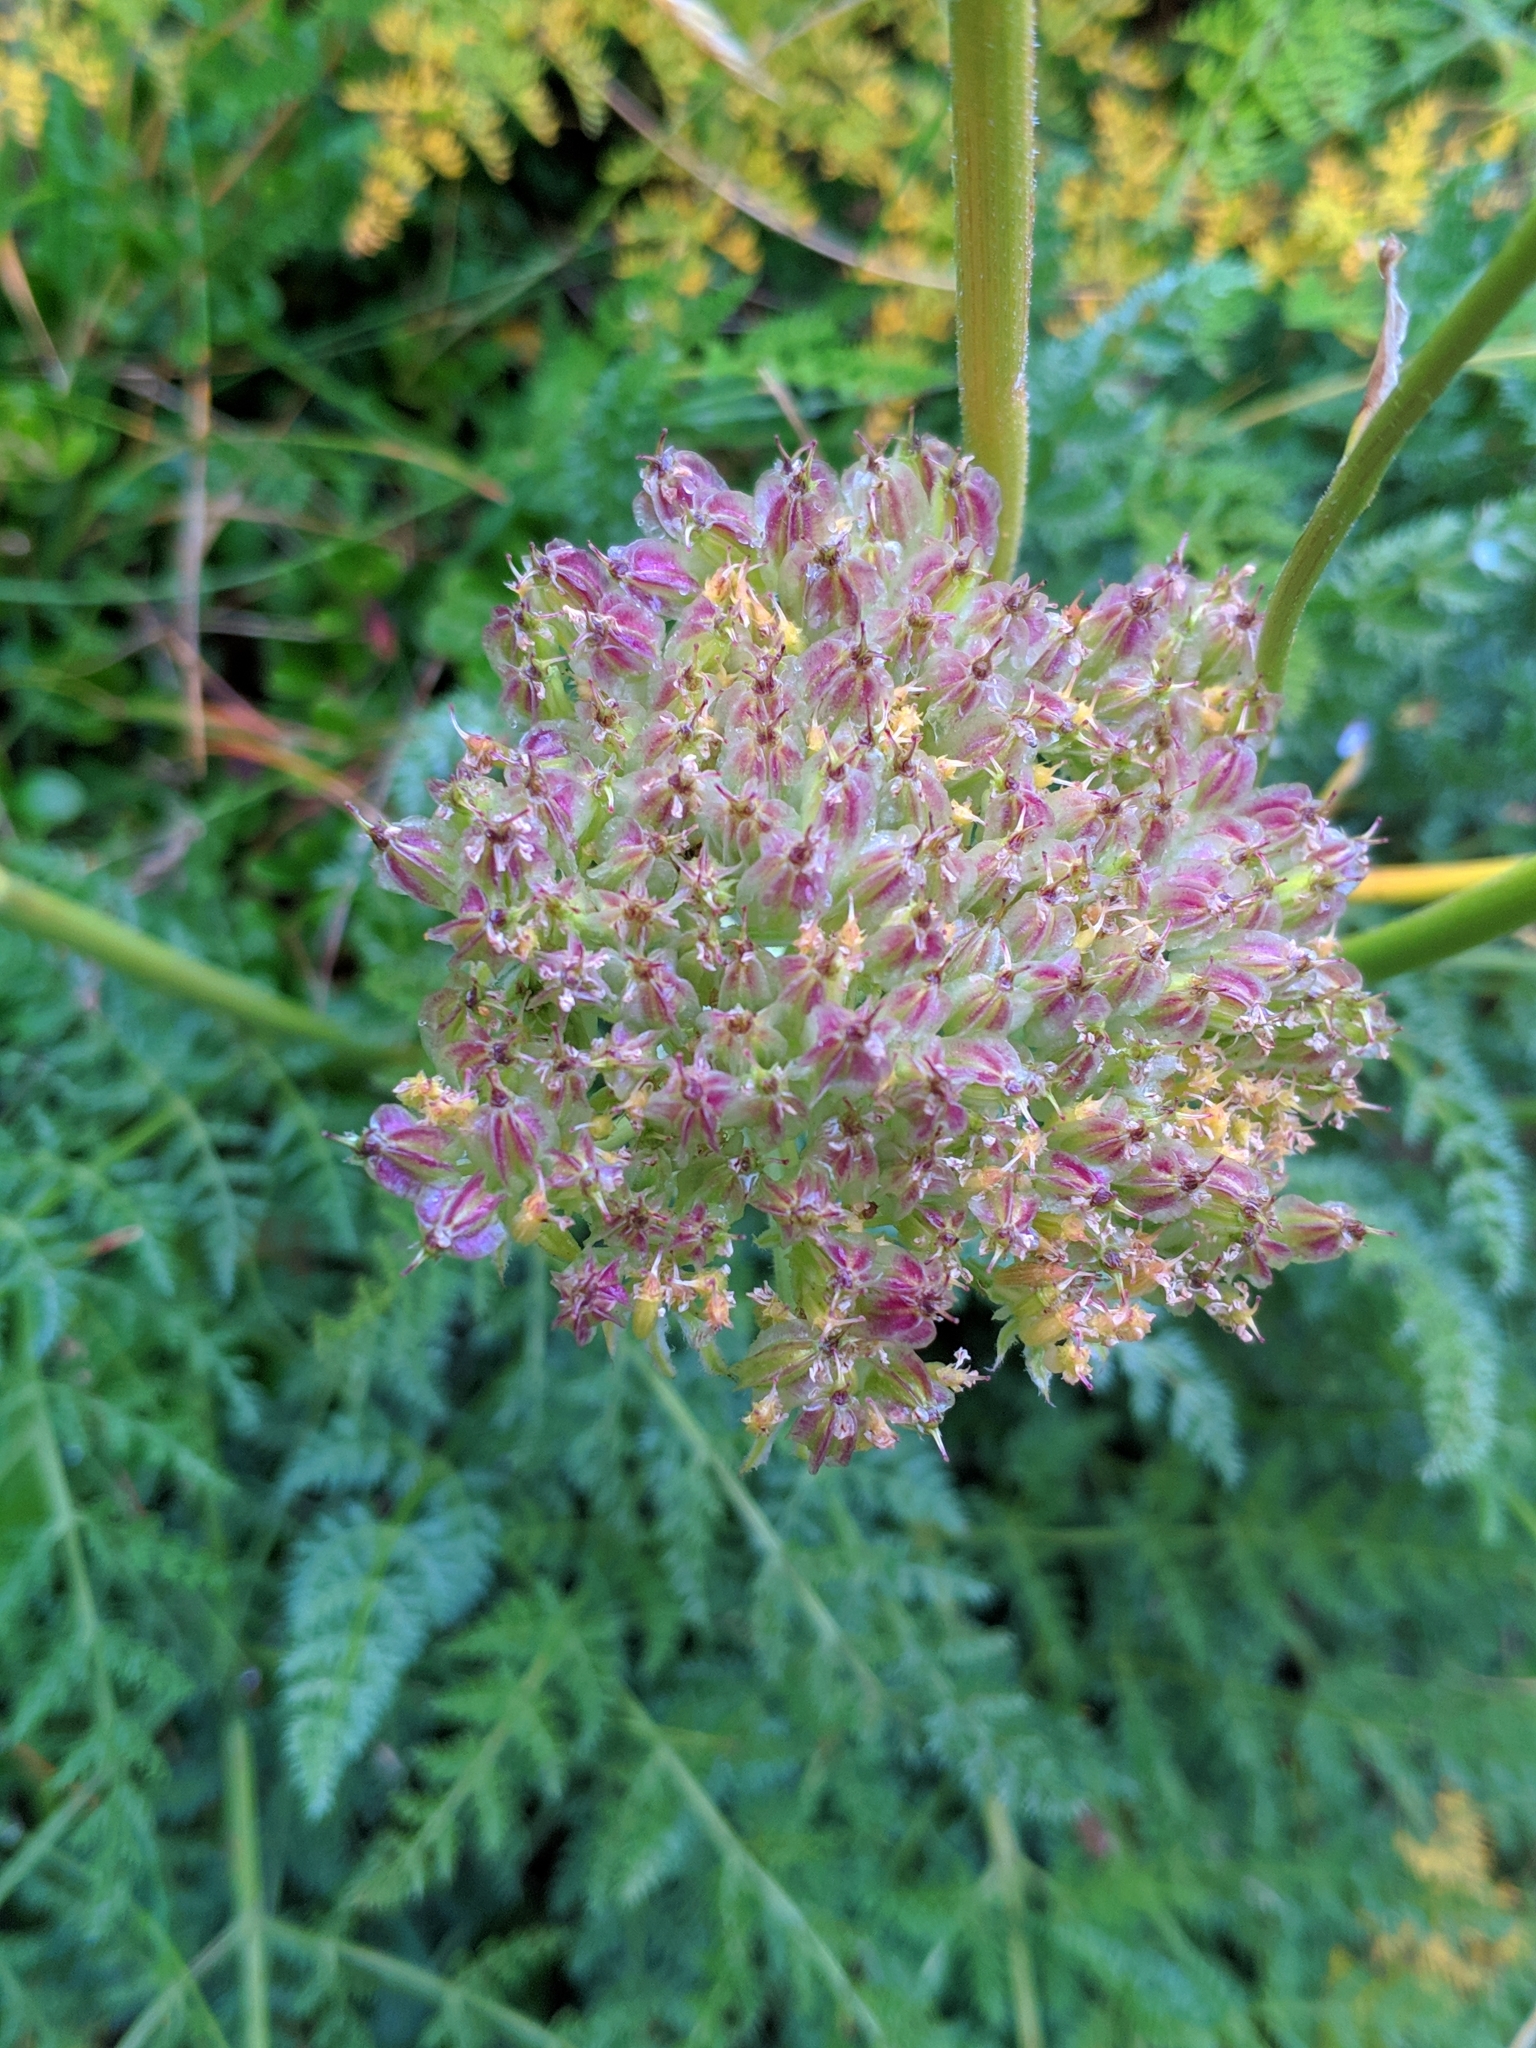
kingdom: Plantae
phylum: Tracheophyta
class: Magnoliopsida
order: Apiales
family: Apiaceae
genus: Laserpitium
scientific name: Laserpitium halleri
